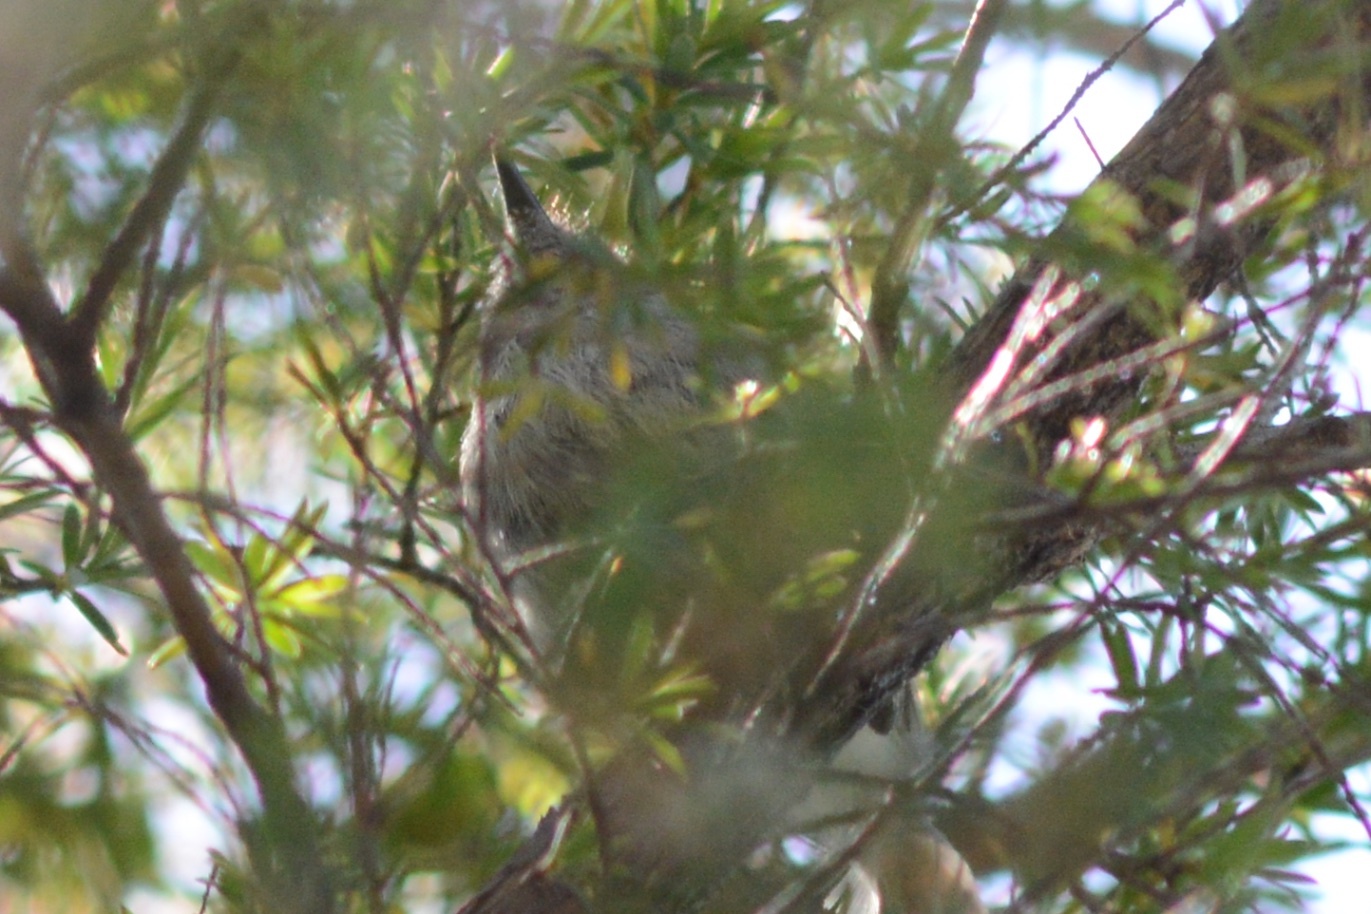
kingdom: Animalia
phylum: Chordata
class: Aves
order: Passeriformes
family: Acanthizidae
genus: Gerygone
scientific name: Gerygone igata
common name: Grey gerygone
